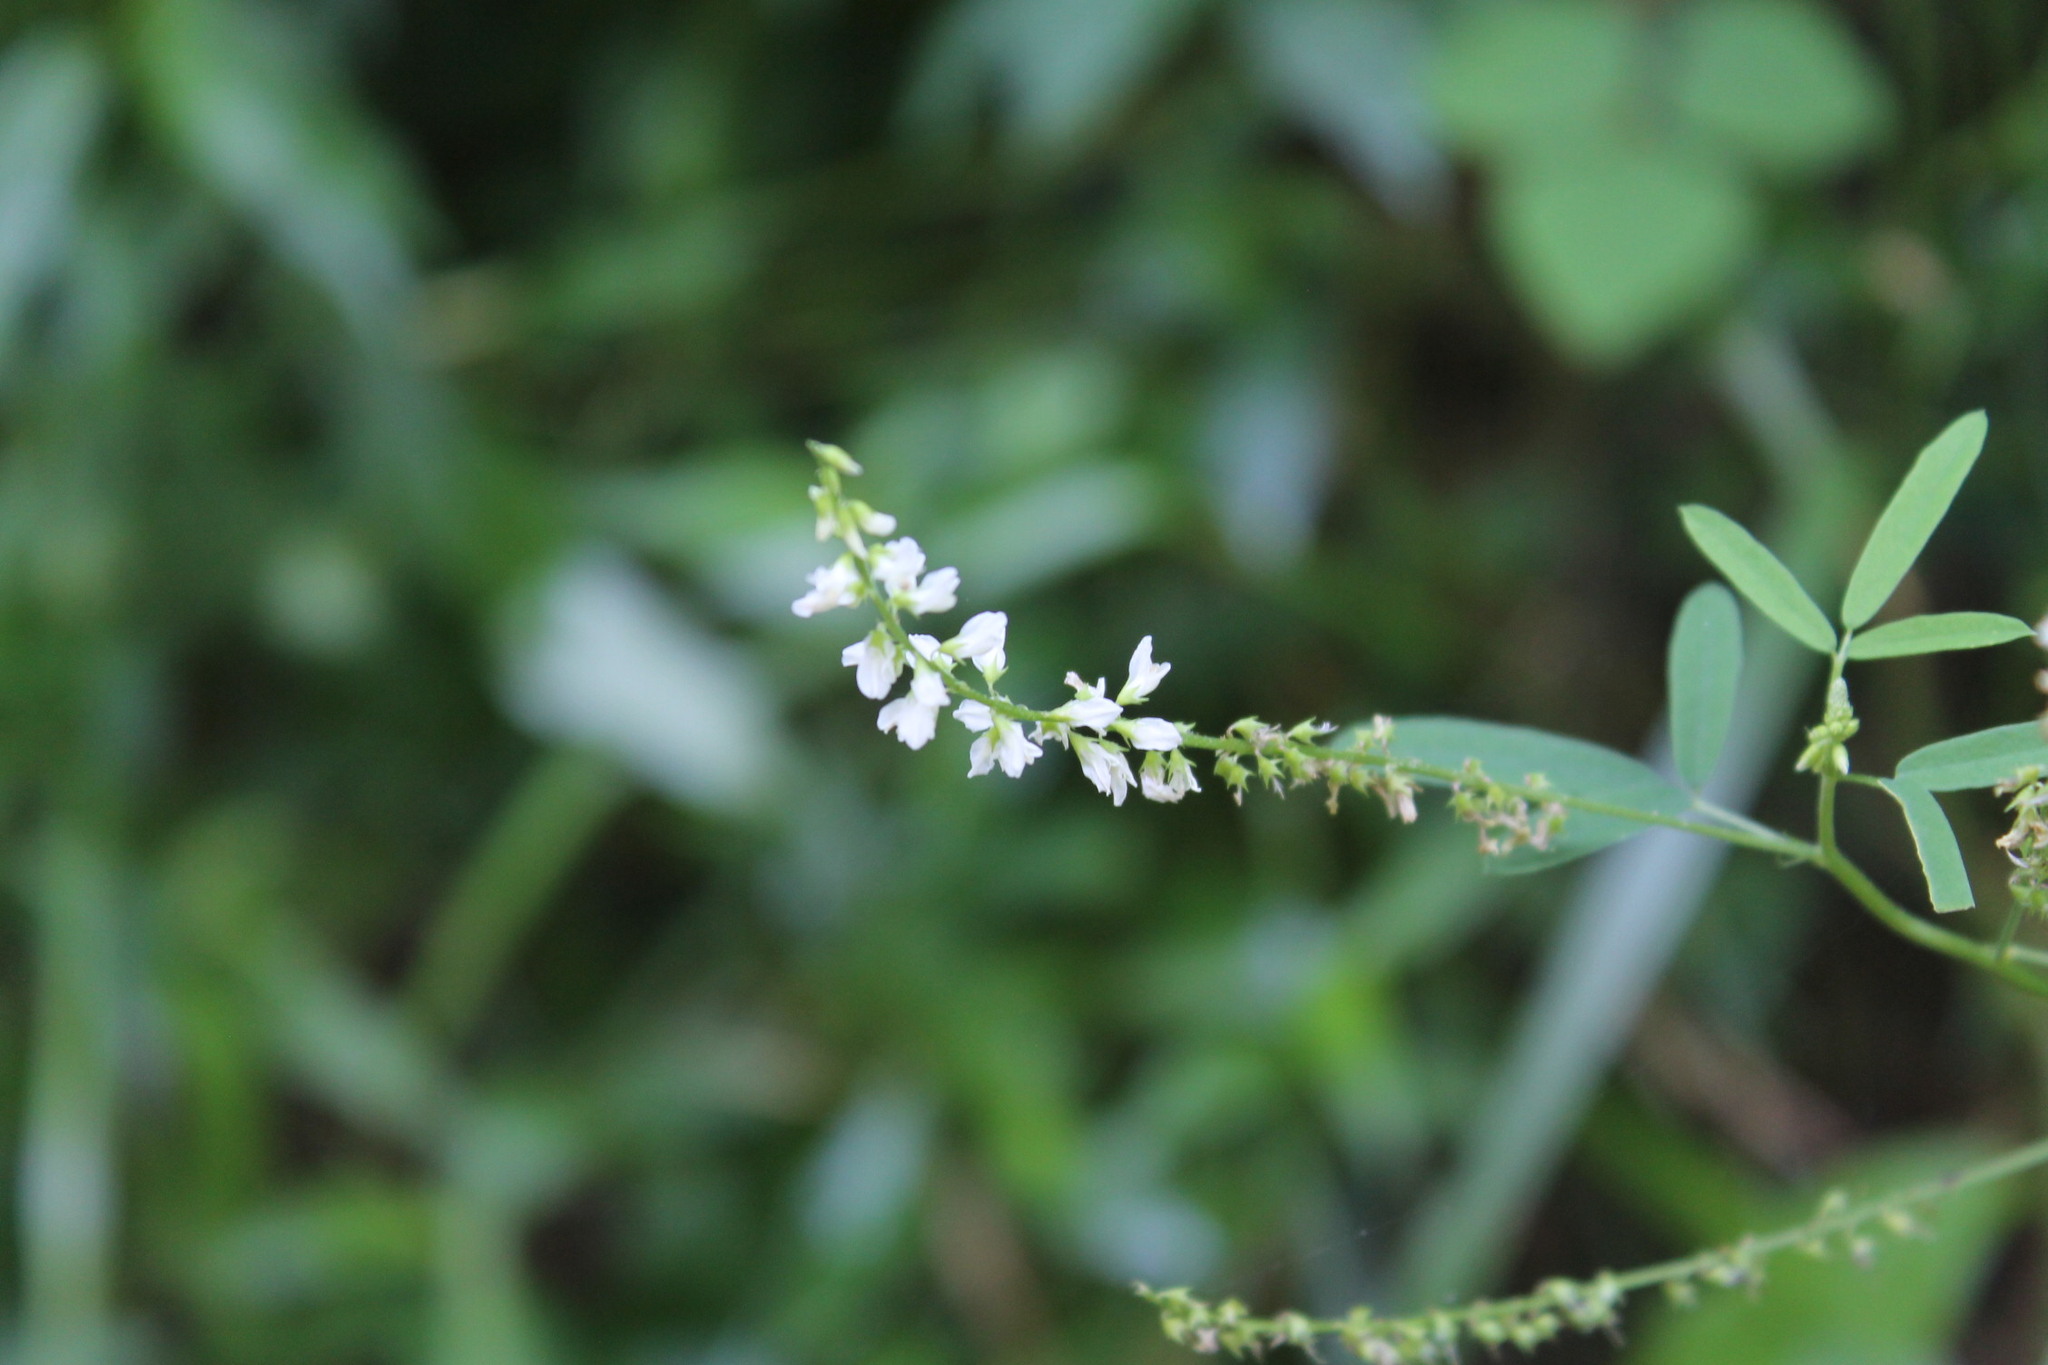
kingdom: Plantae
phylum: Tracheophyta
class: Magnoliopsida
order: Fabales
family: Fabaceae
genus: Melilotus
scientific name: Melilotus albus
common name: White melilot
